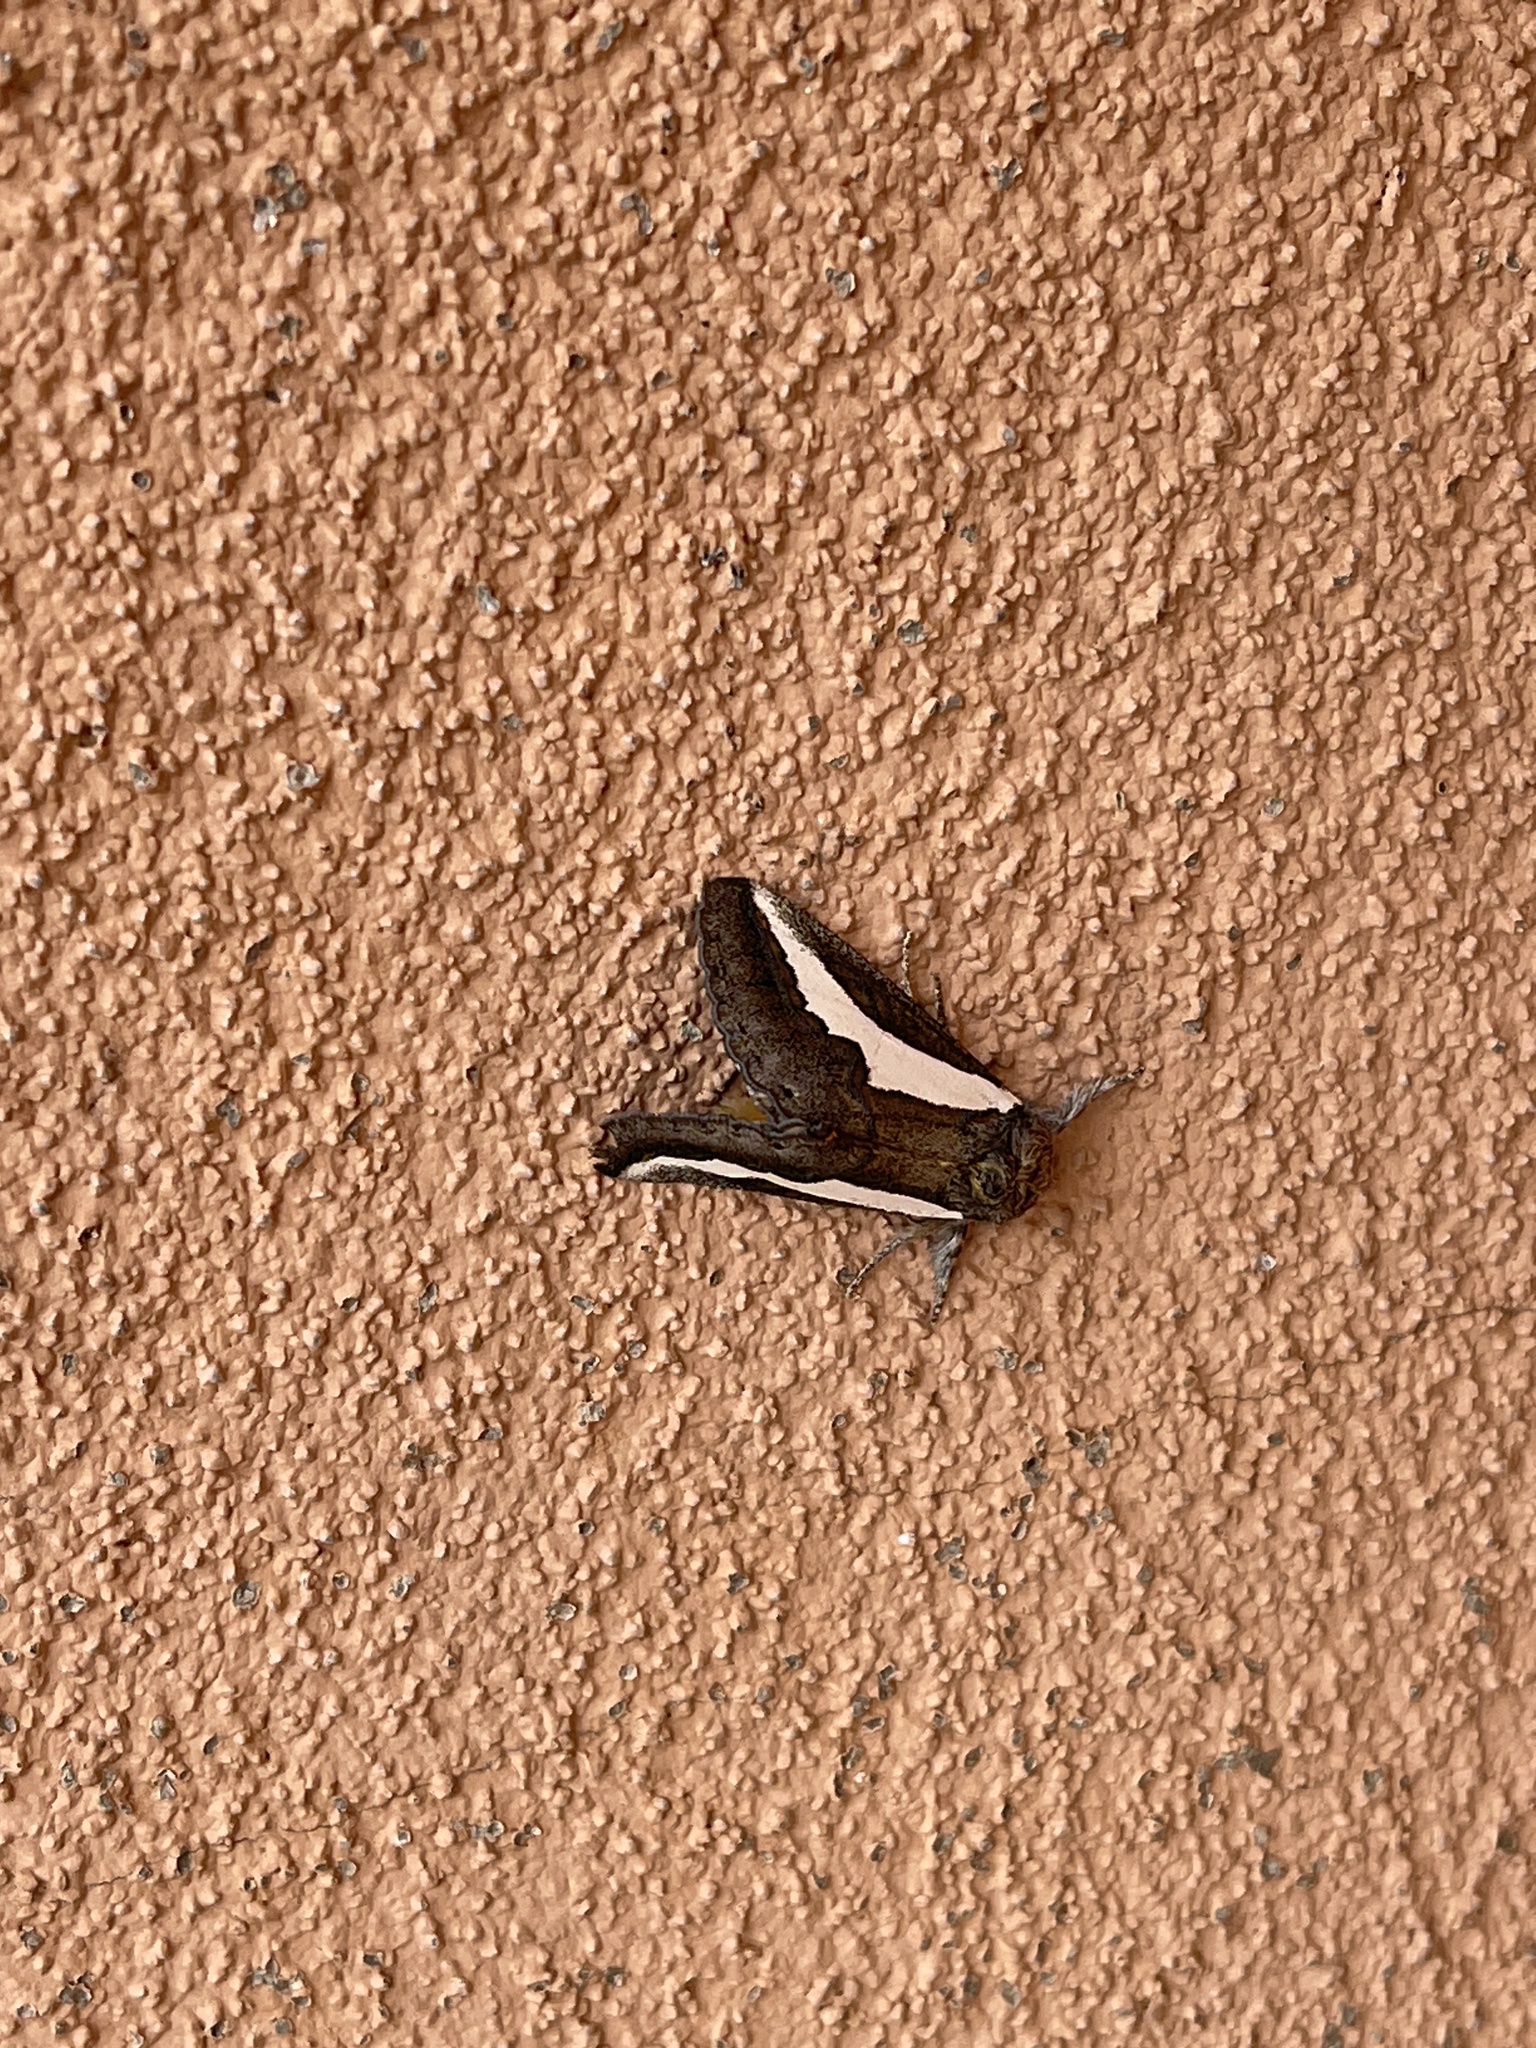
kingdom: Animalia
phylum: Arthropoda
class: Insecta
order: Lepidoptera
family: Noctuidae
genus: Euscirrhopterus
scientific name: Euscirrhopterus cosyra
